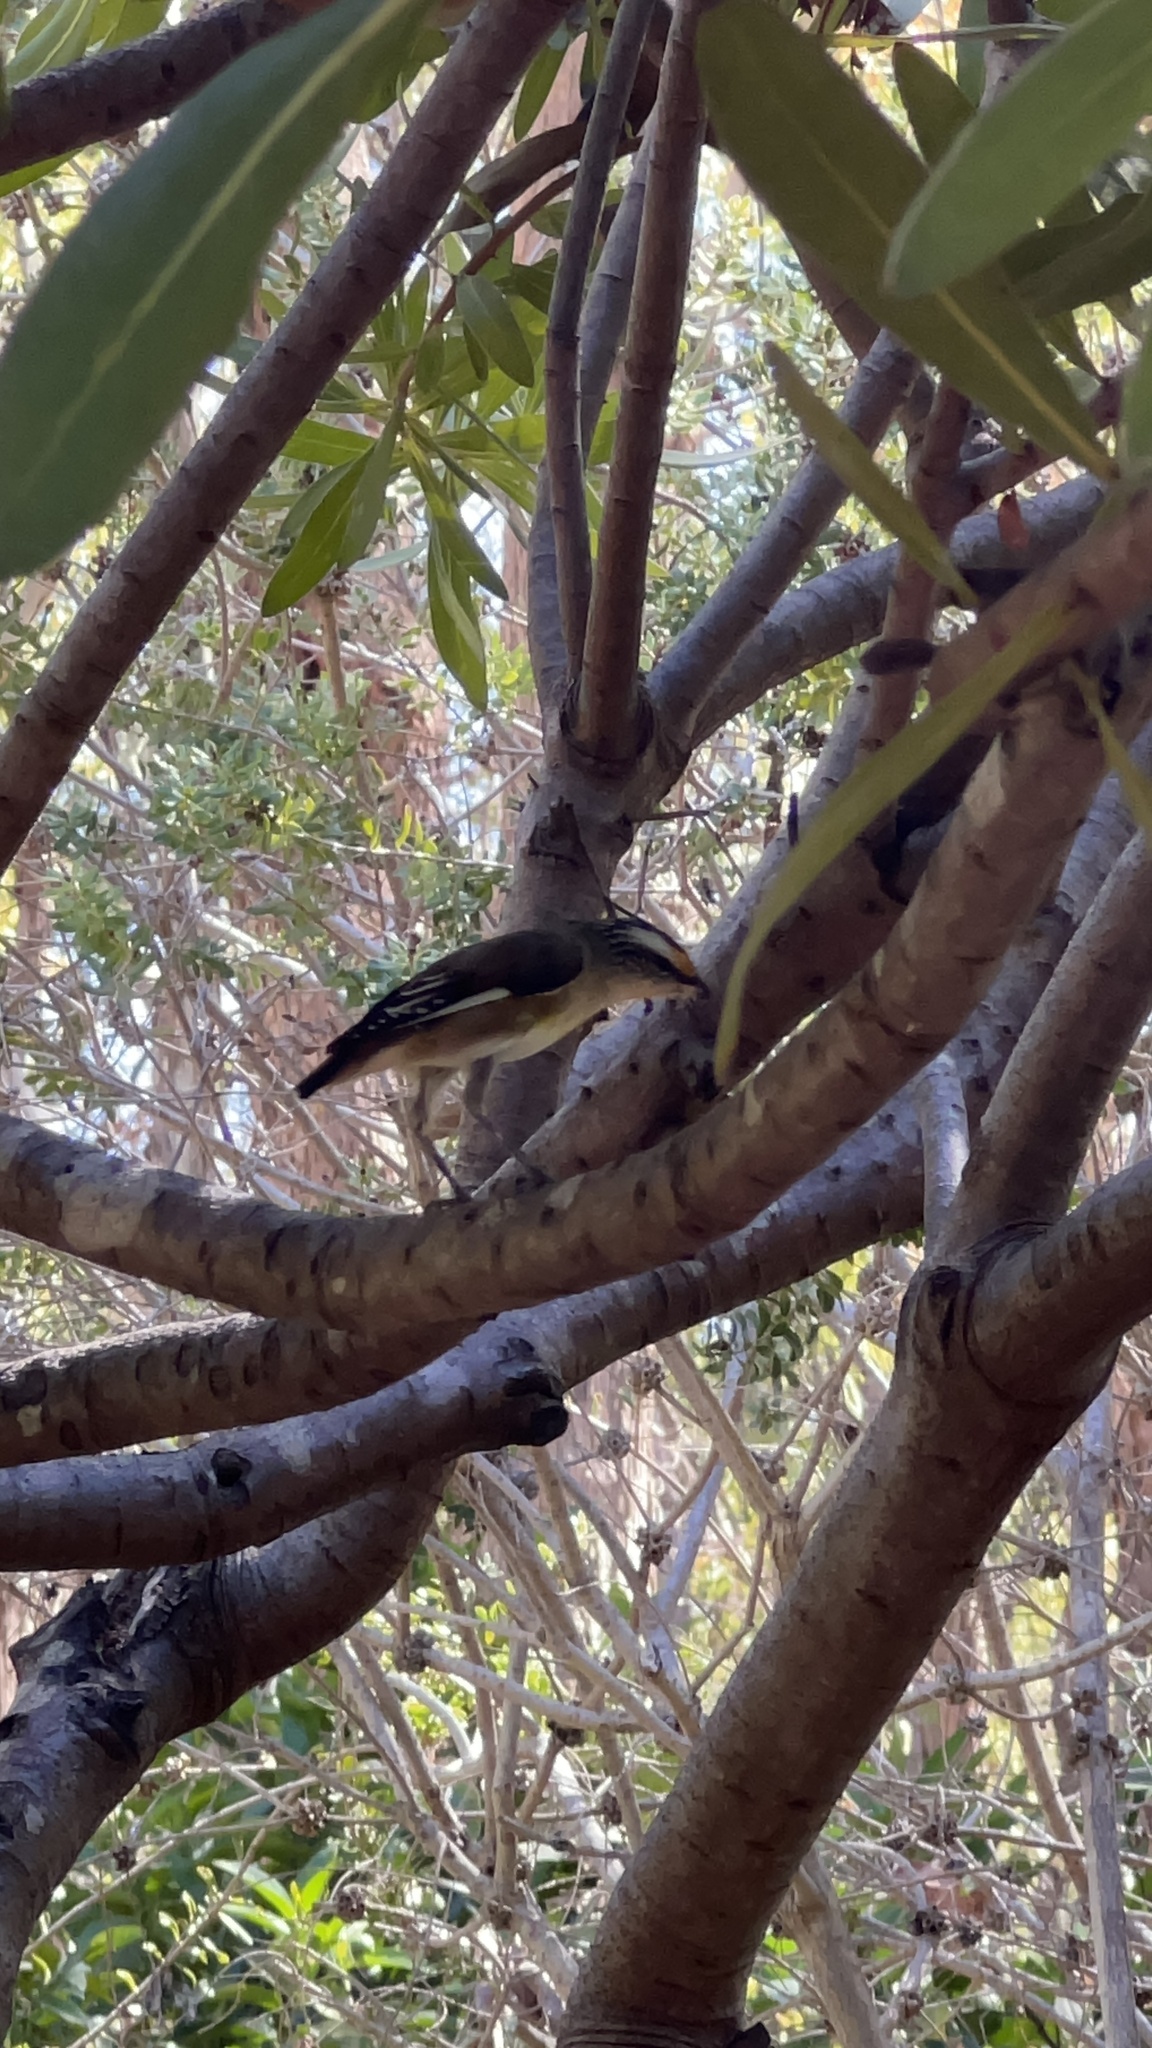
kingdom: Animalia
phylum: Chordata
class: Aves
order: Passeriformes
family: Pardalotidae
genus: Pardalotus
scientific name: Pardalotus striatus
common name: Striated pardalote
